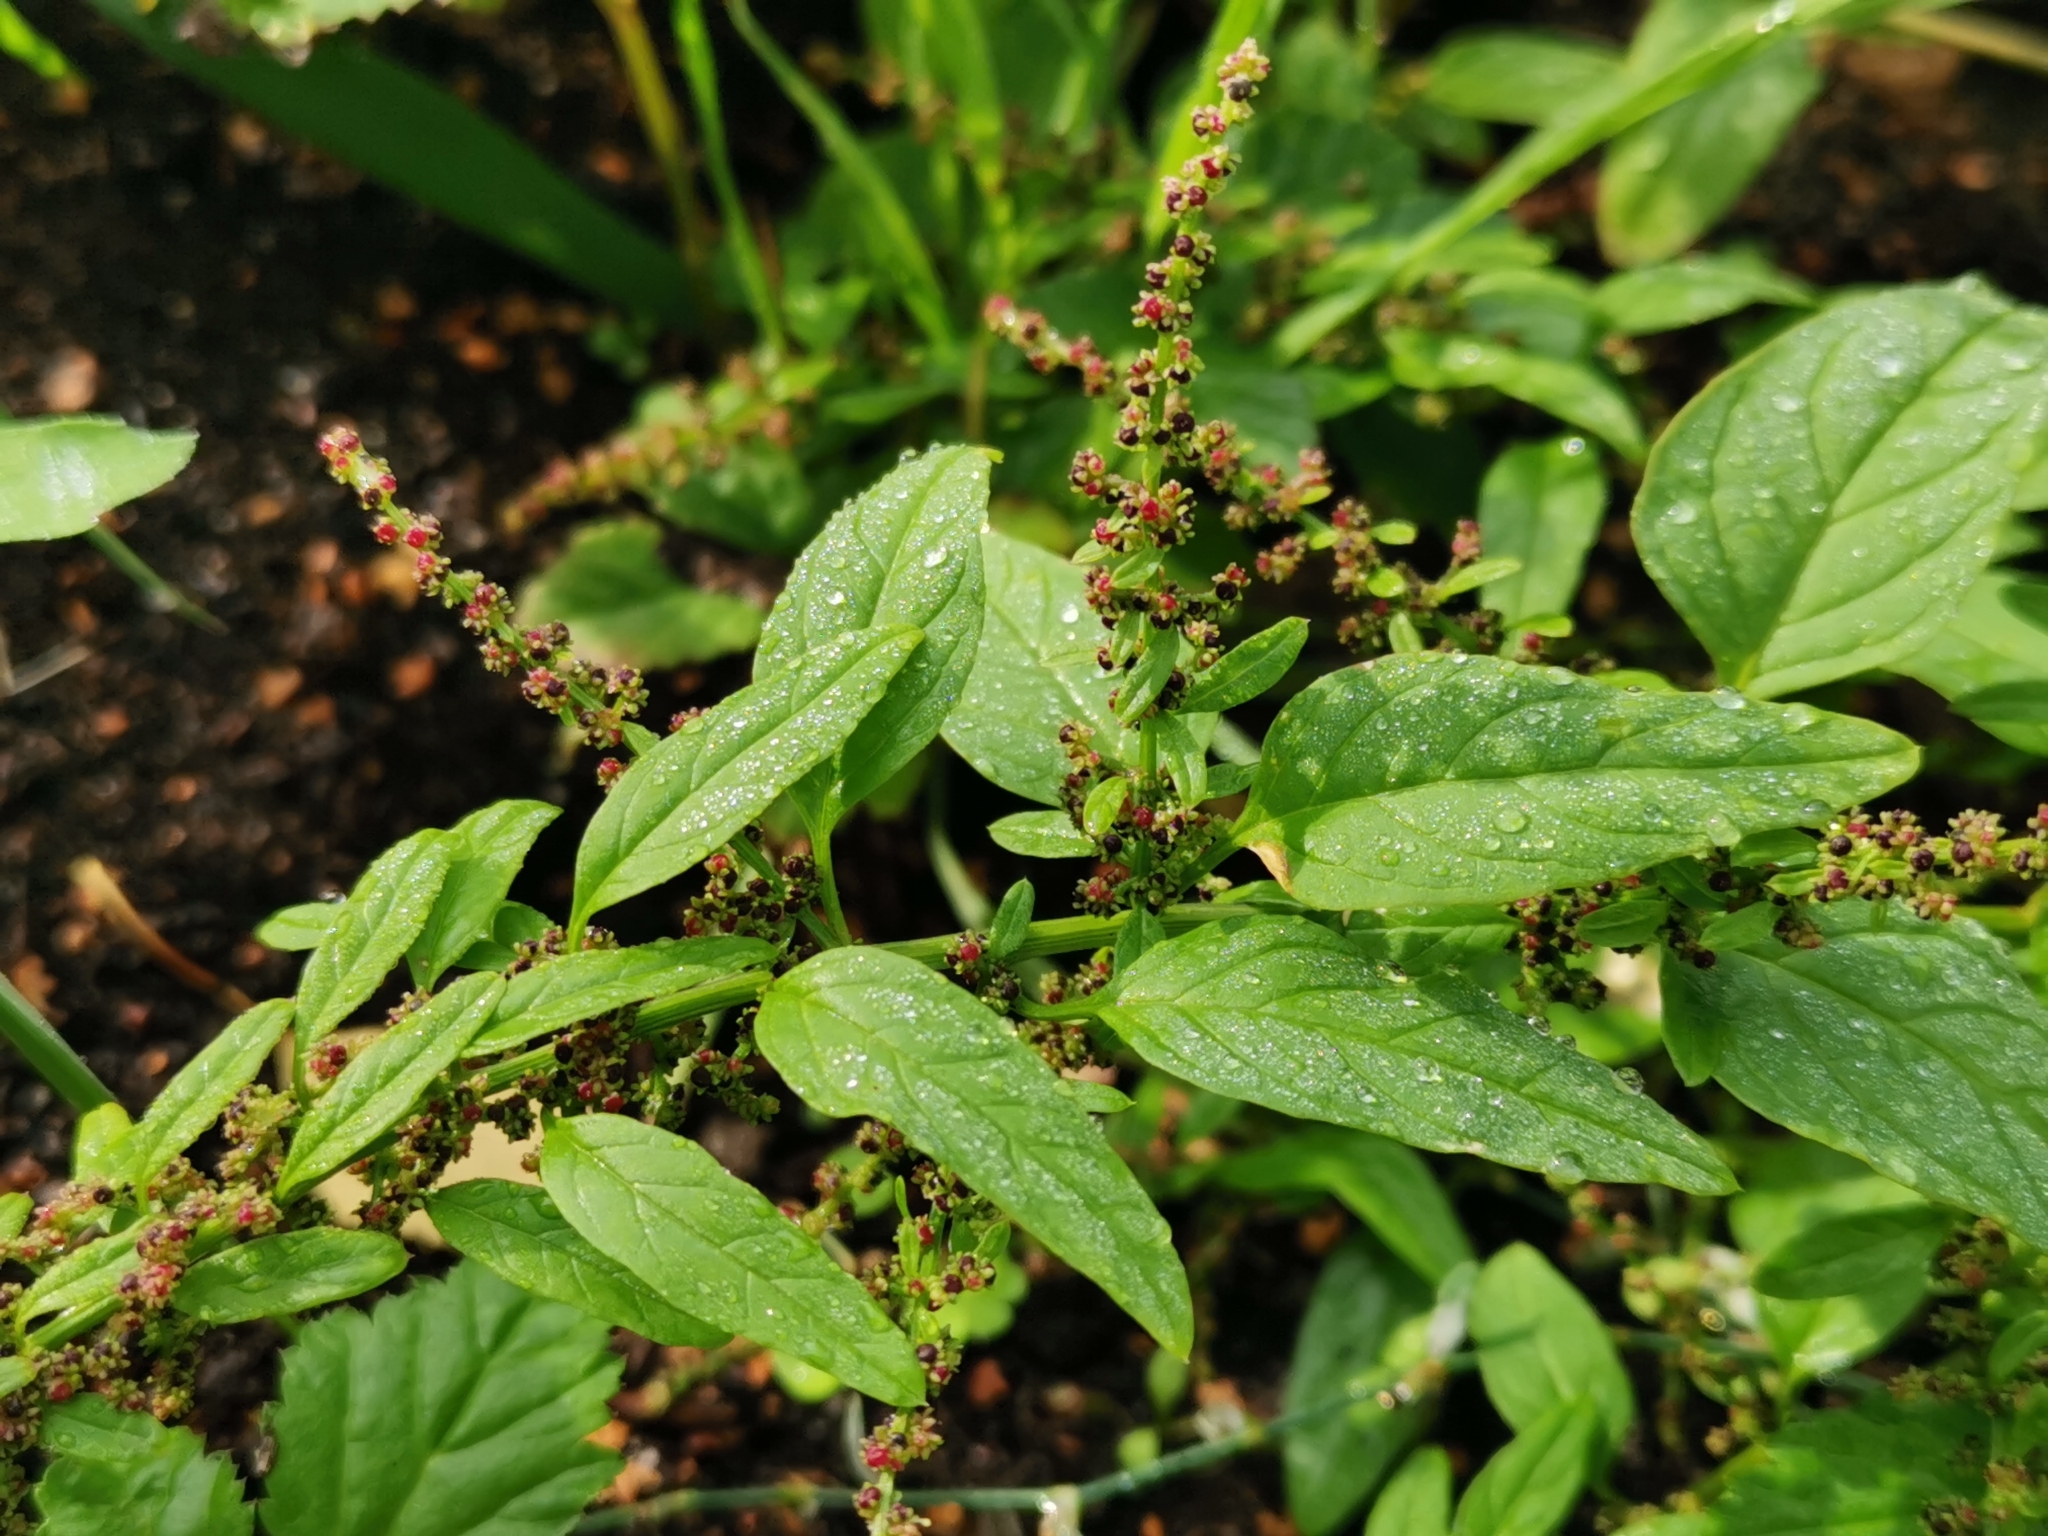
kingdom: Plantae
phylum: Tracheophyta
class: Magnoliopsida
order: Caryophyllales
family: Amaranthaceae
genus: Lipandra
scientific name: Lipandra polysperma
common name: Many-seed goosefoot
